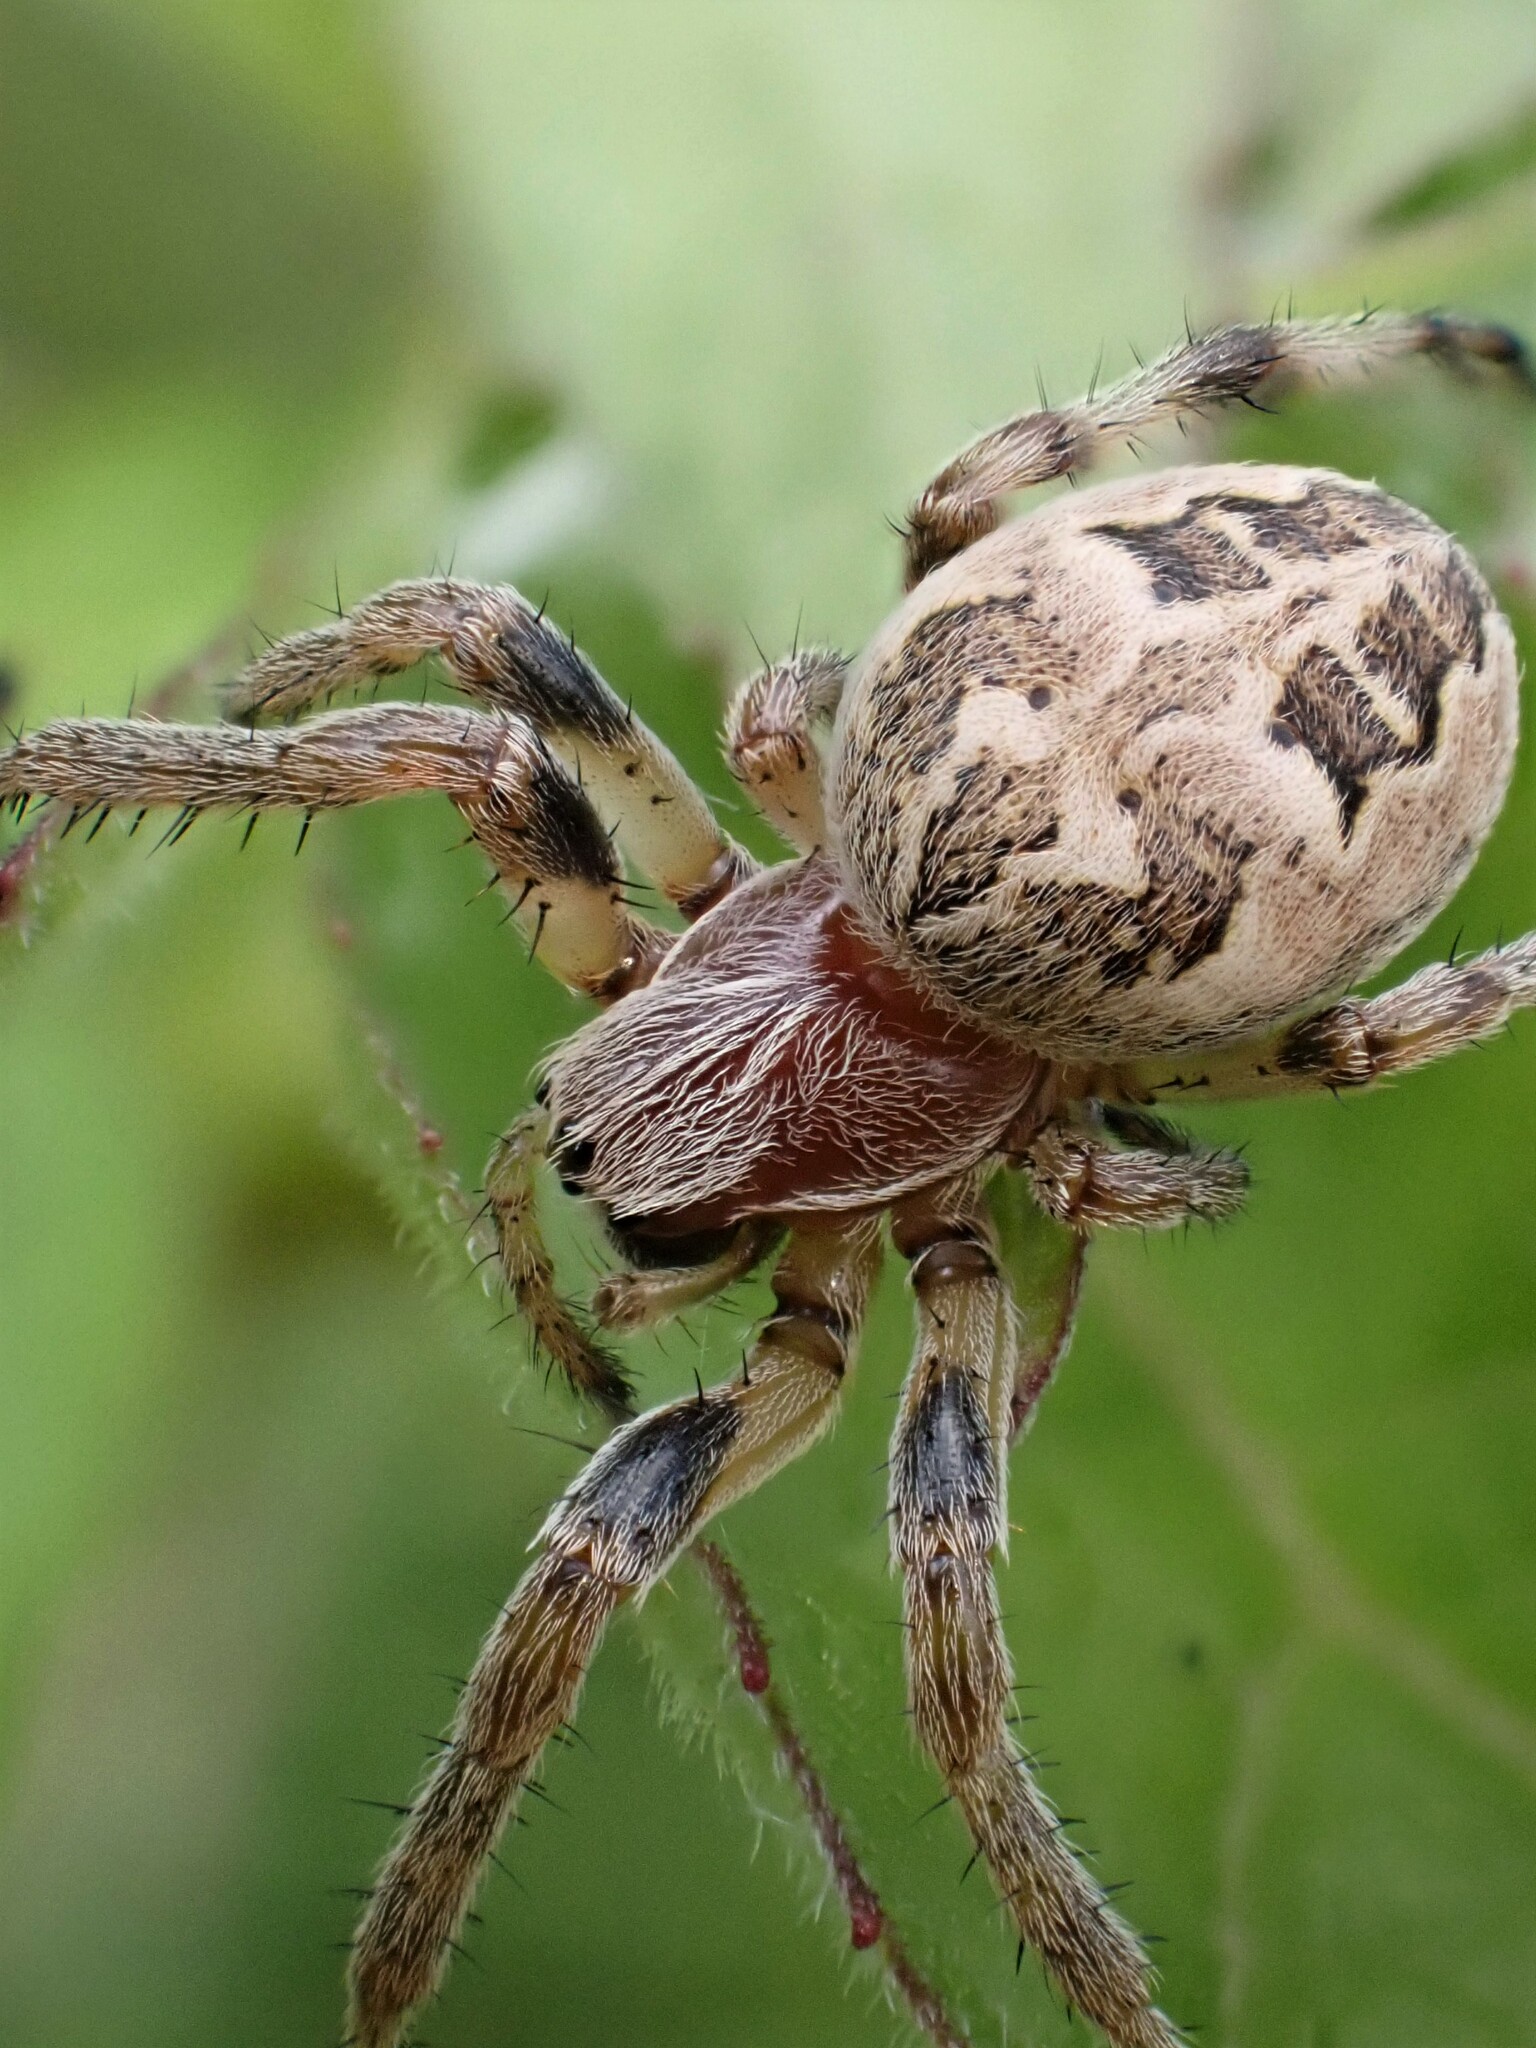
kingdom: Animalia
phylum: Arthropoda
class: Arachnida
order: Araneae
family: Araneidae
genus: Larinioides
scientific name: Larinioides cornutus
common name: Furrow orbweaver
